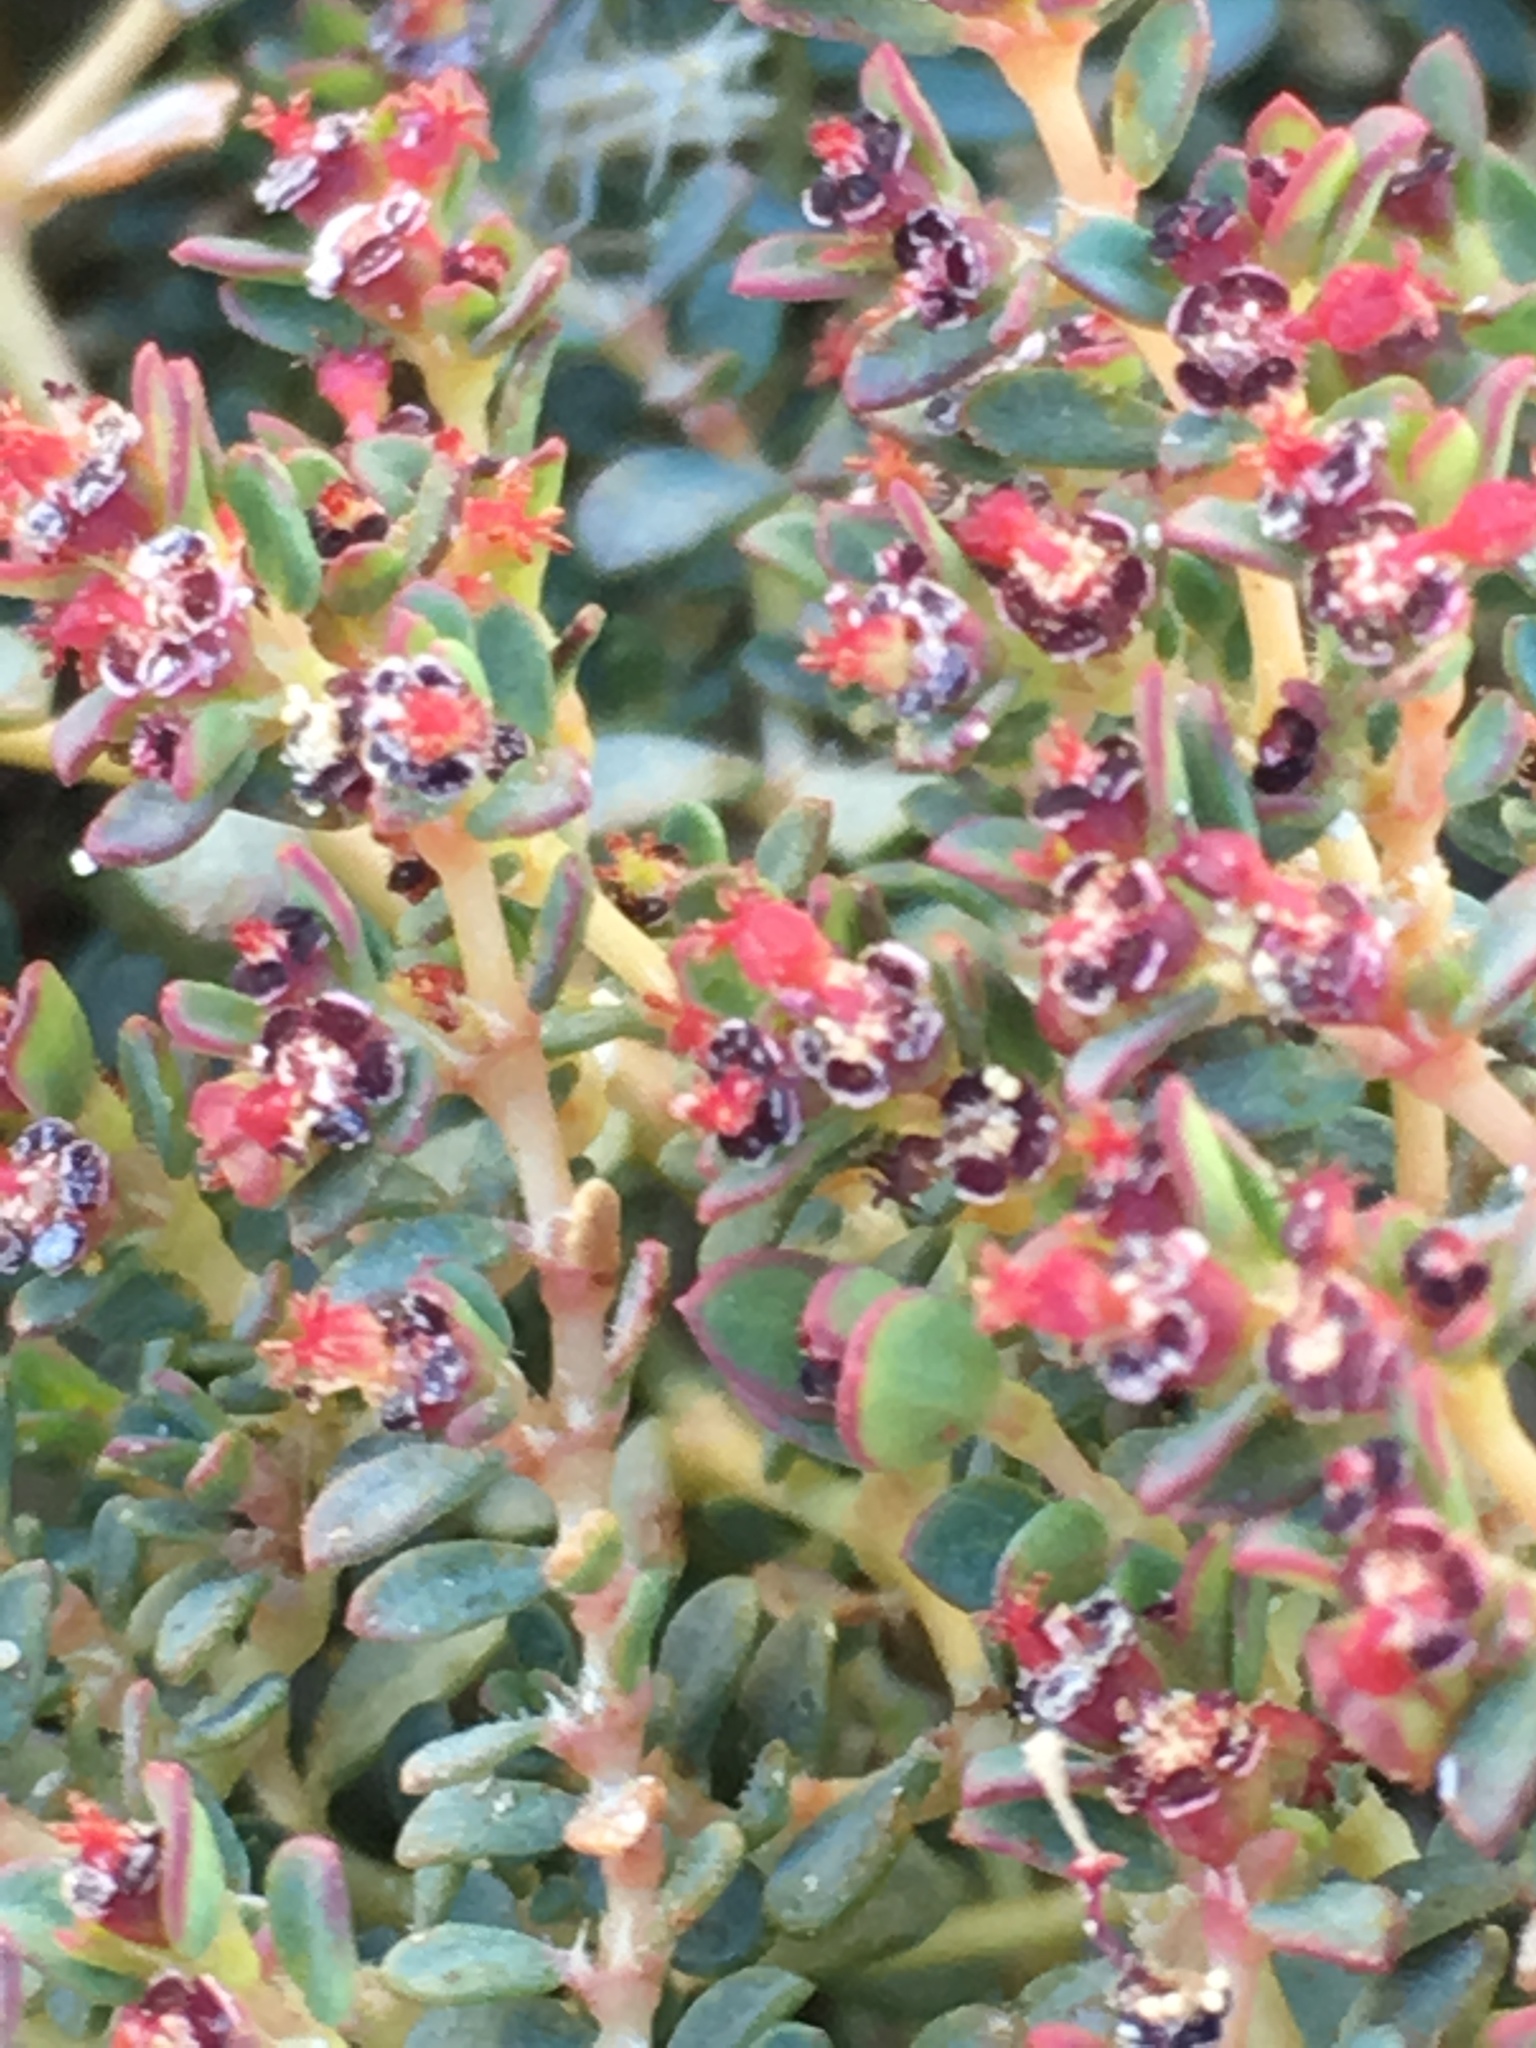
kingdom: Plantae
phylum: Tracheophyta
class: Magnoliopsida
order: Malpighiales
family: Euphorbiaceae
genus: Euphorbia
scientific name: Euphorbia polycarpa
